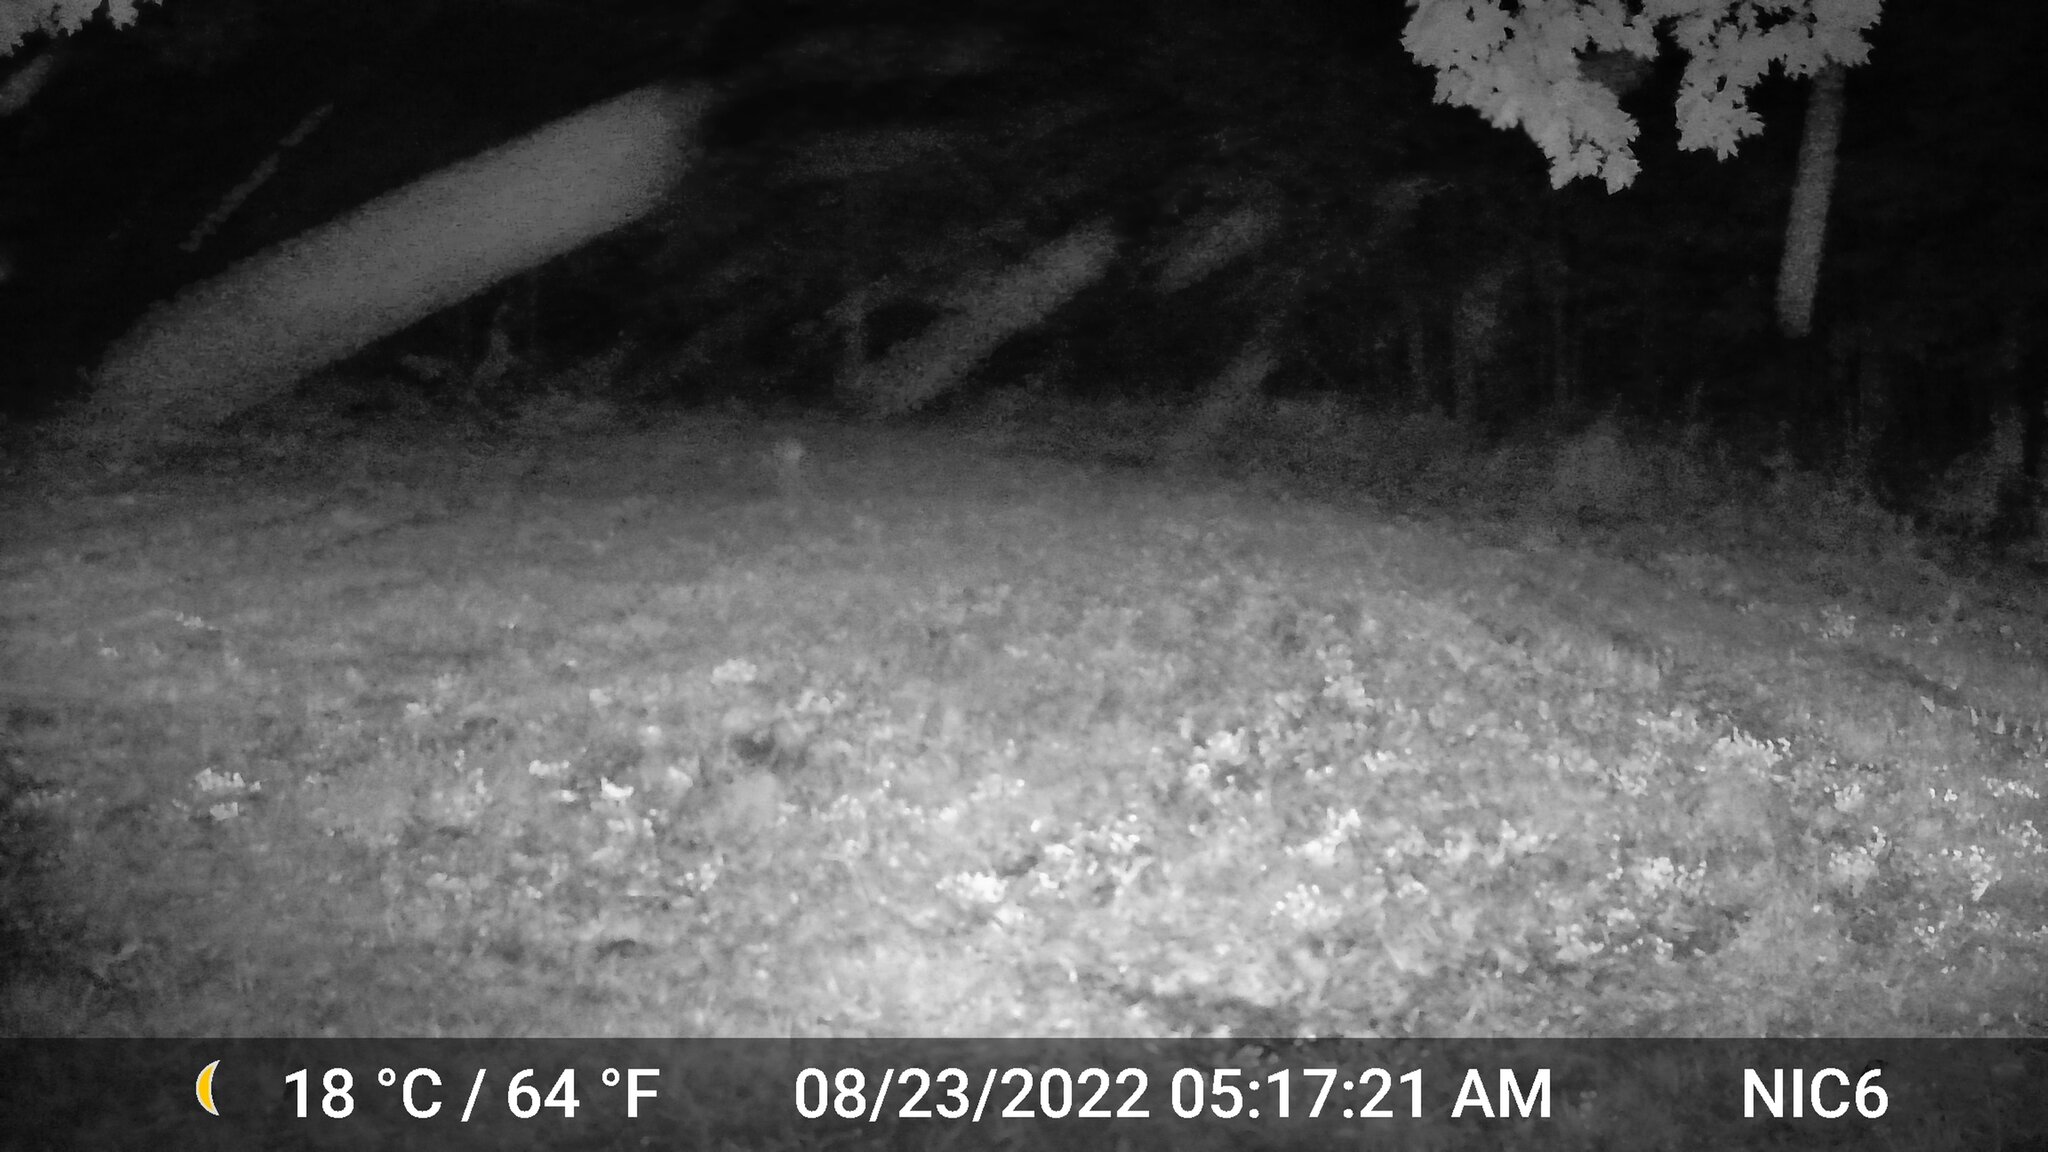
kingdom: Animalia
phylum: Chordata
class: Mammalia
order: Artiodactyla
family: Cervidae
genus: Odocoileus
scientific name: Odocoileus virginianus
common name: White-tailed deer
